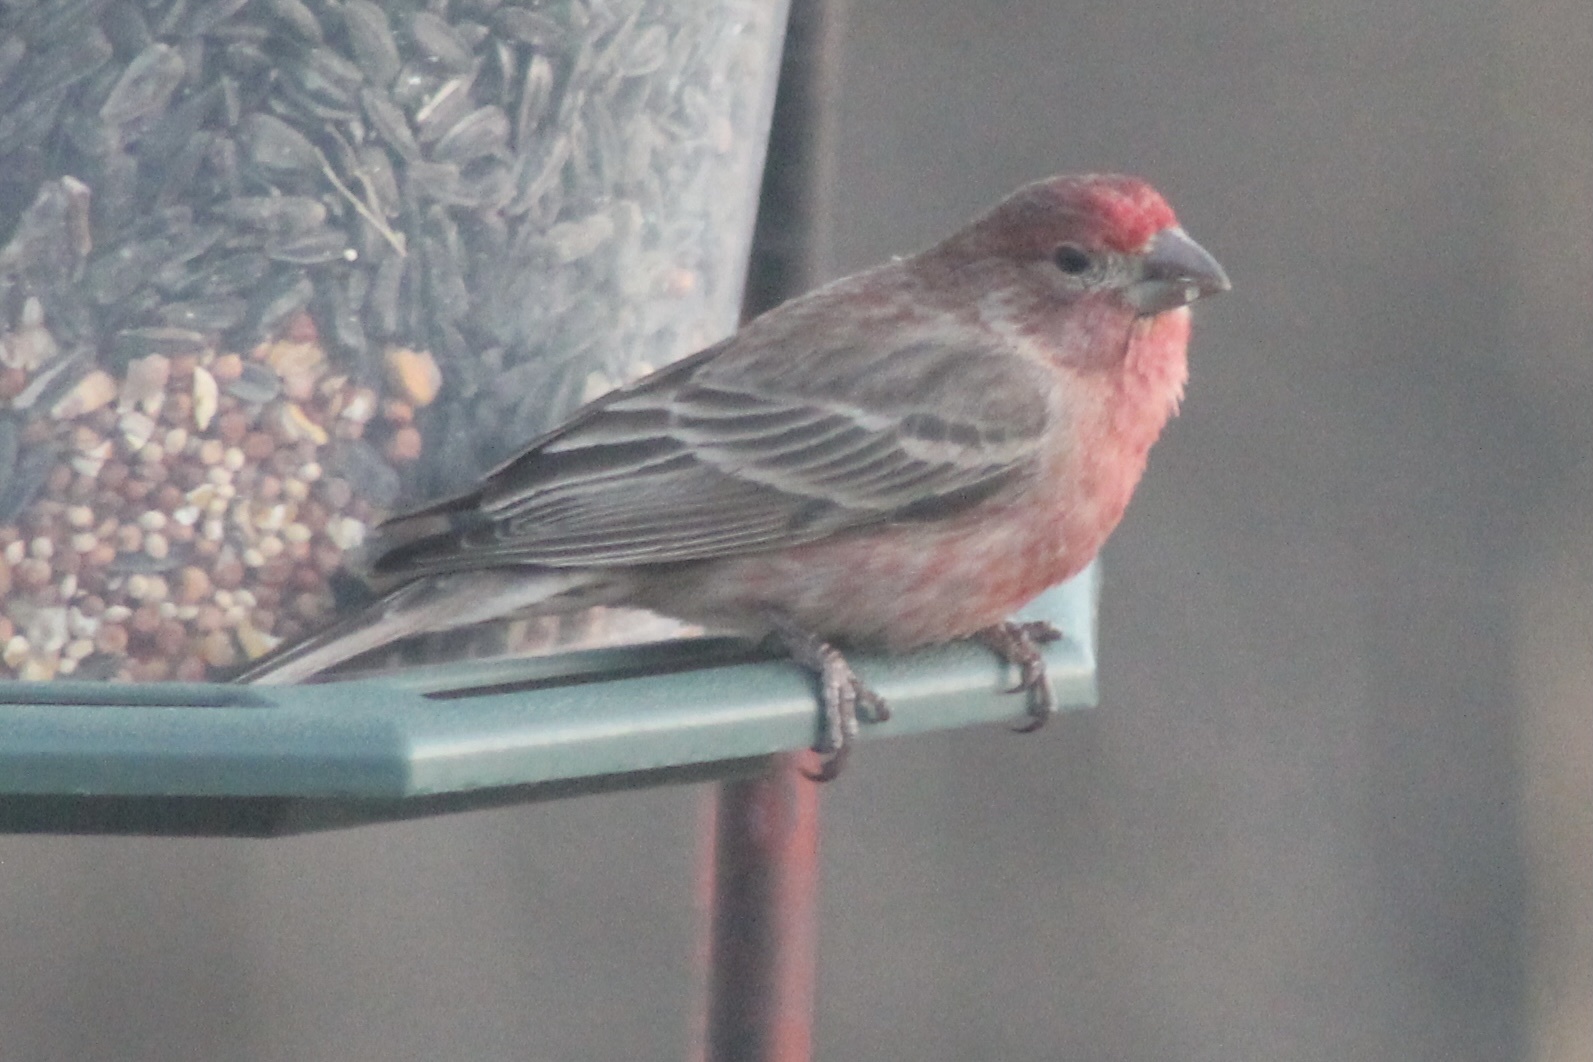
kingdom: Animalia
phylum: Chordata
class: Aves
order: Passeriformes
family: Fringillidae
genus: Haemorhous
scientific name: Haemorhous mexicanus
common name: House finch
